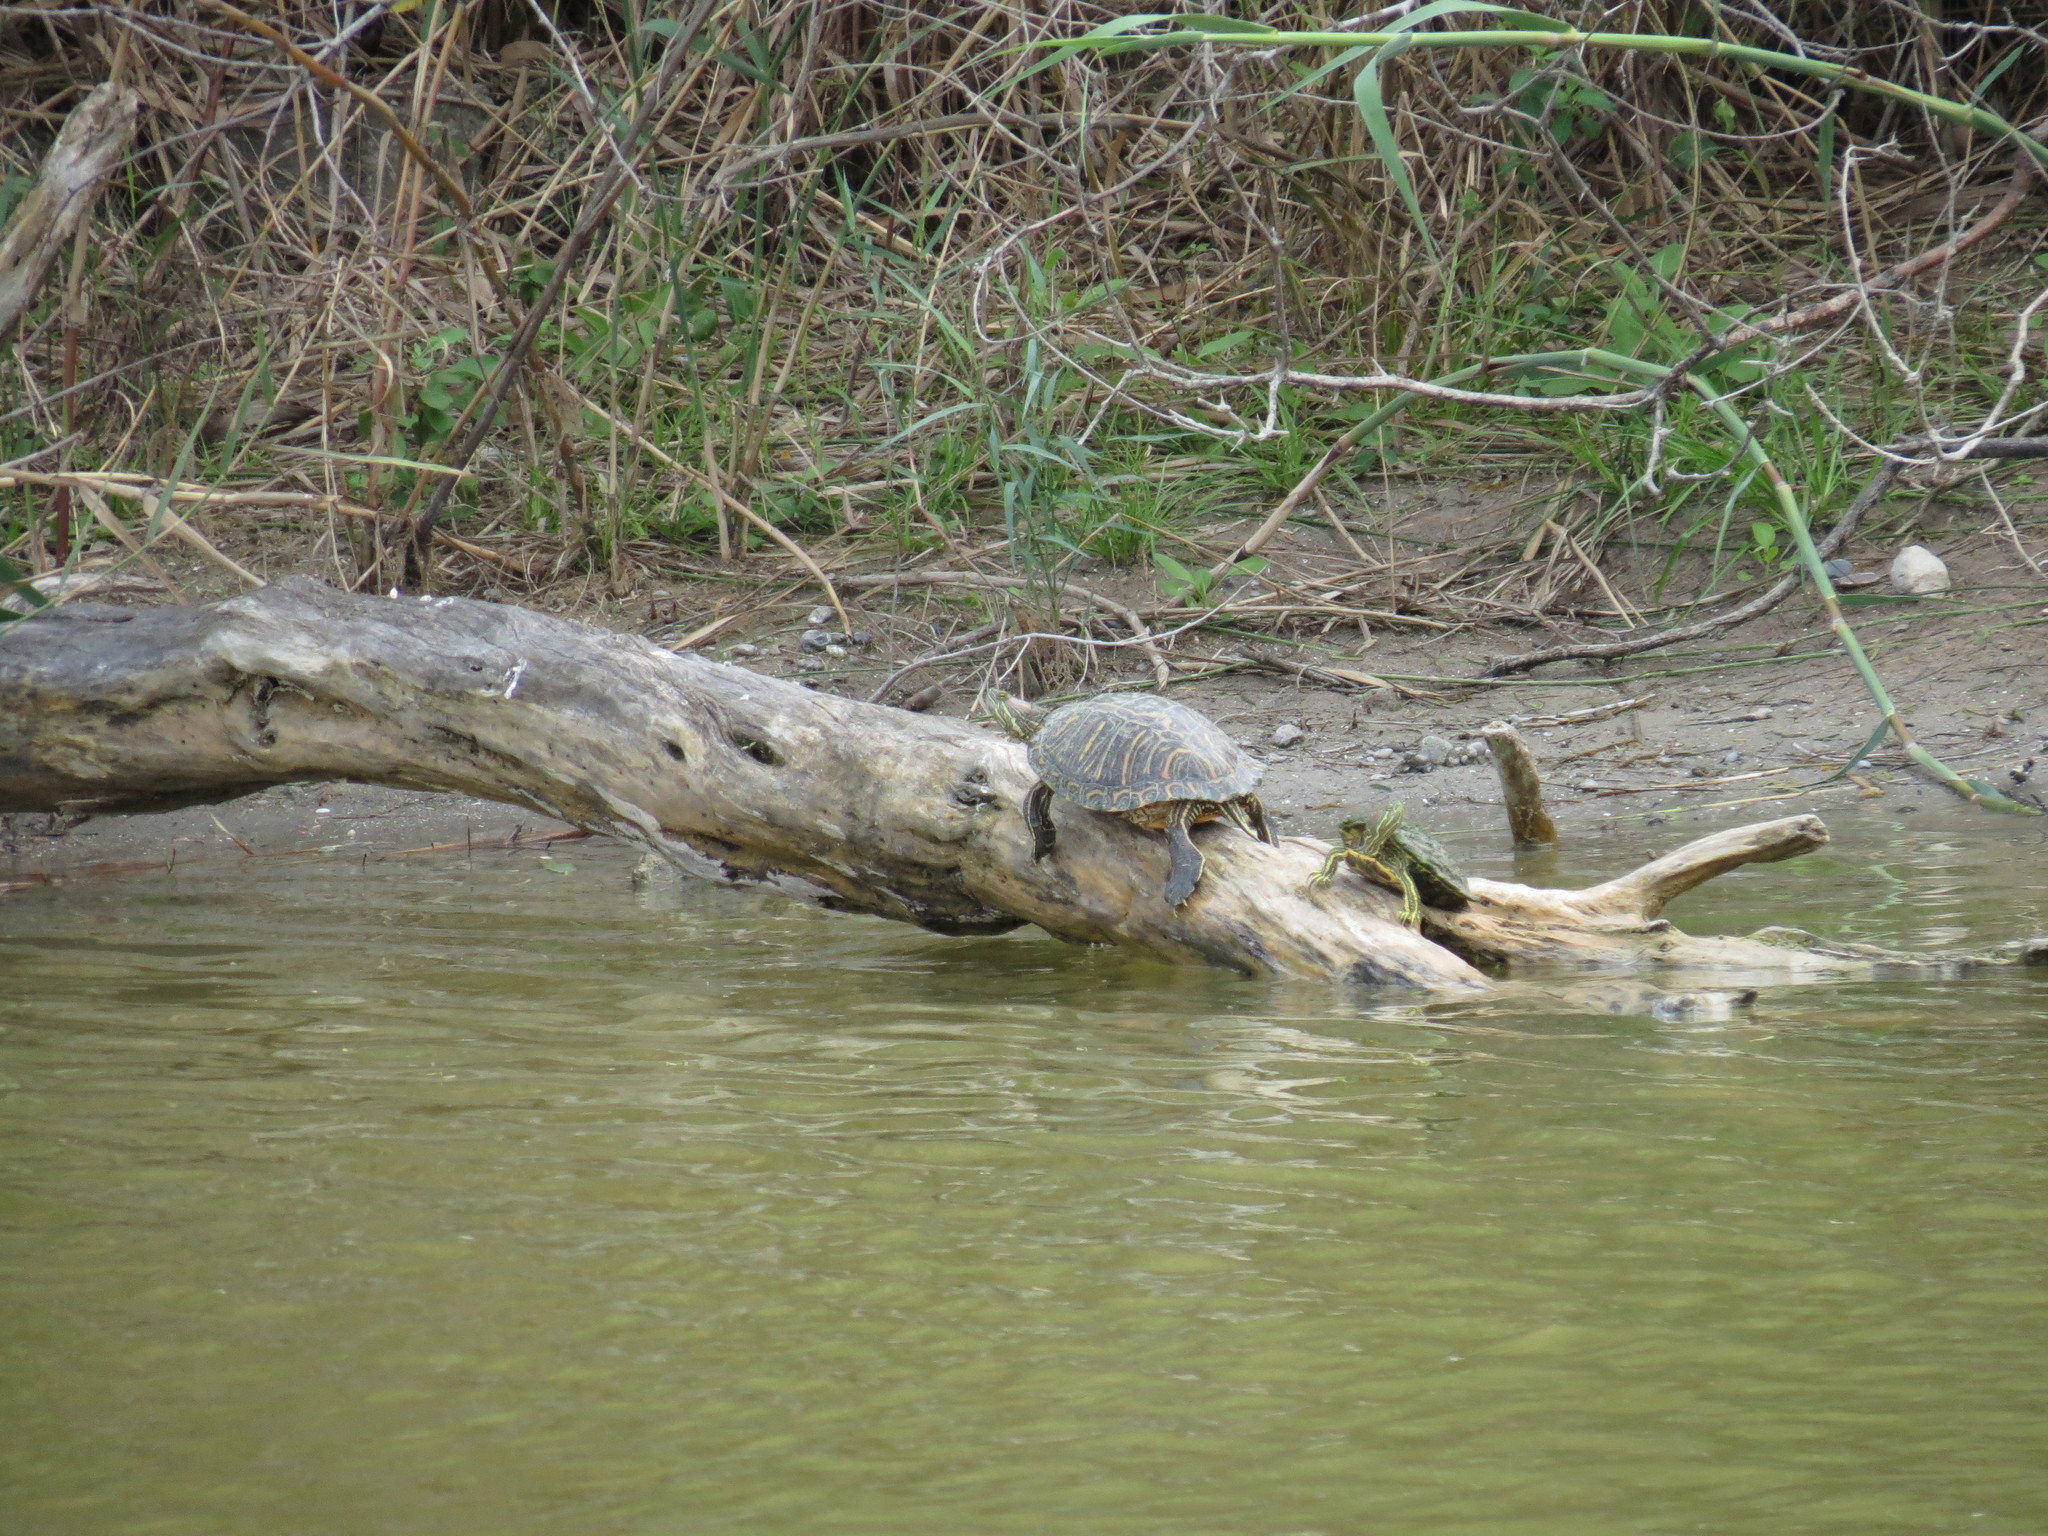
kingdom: Animalia
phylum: Chordata
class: Testudines
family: Emydidae
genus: Trachemys
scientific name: Trachemys scripta
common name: Slider
